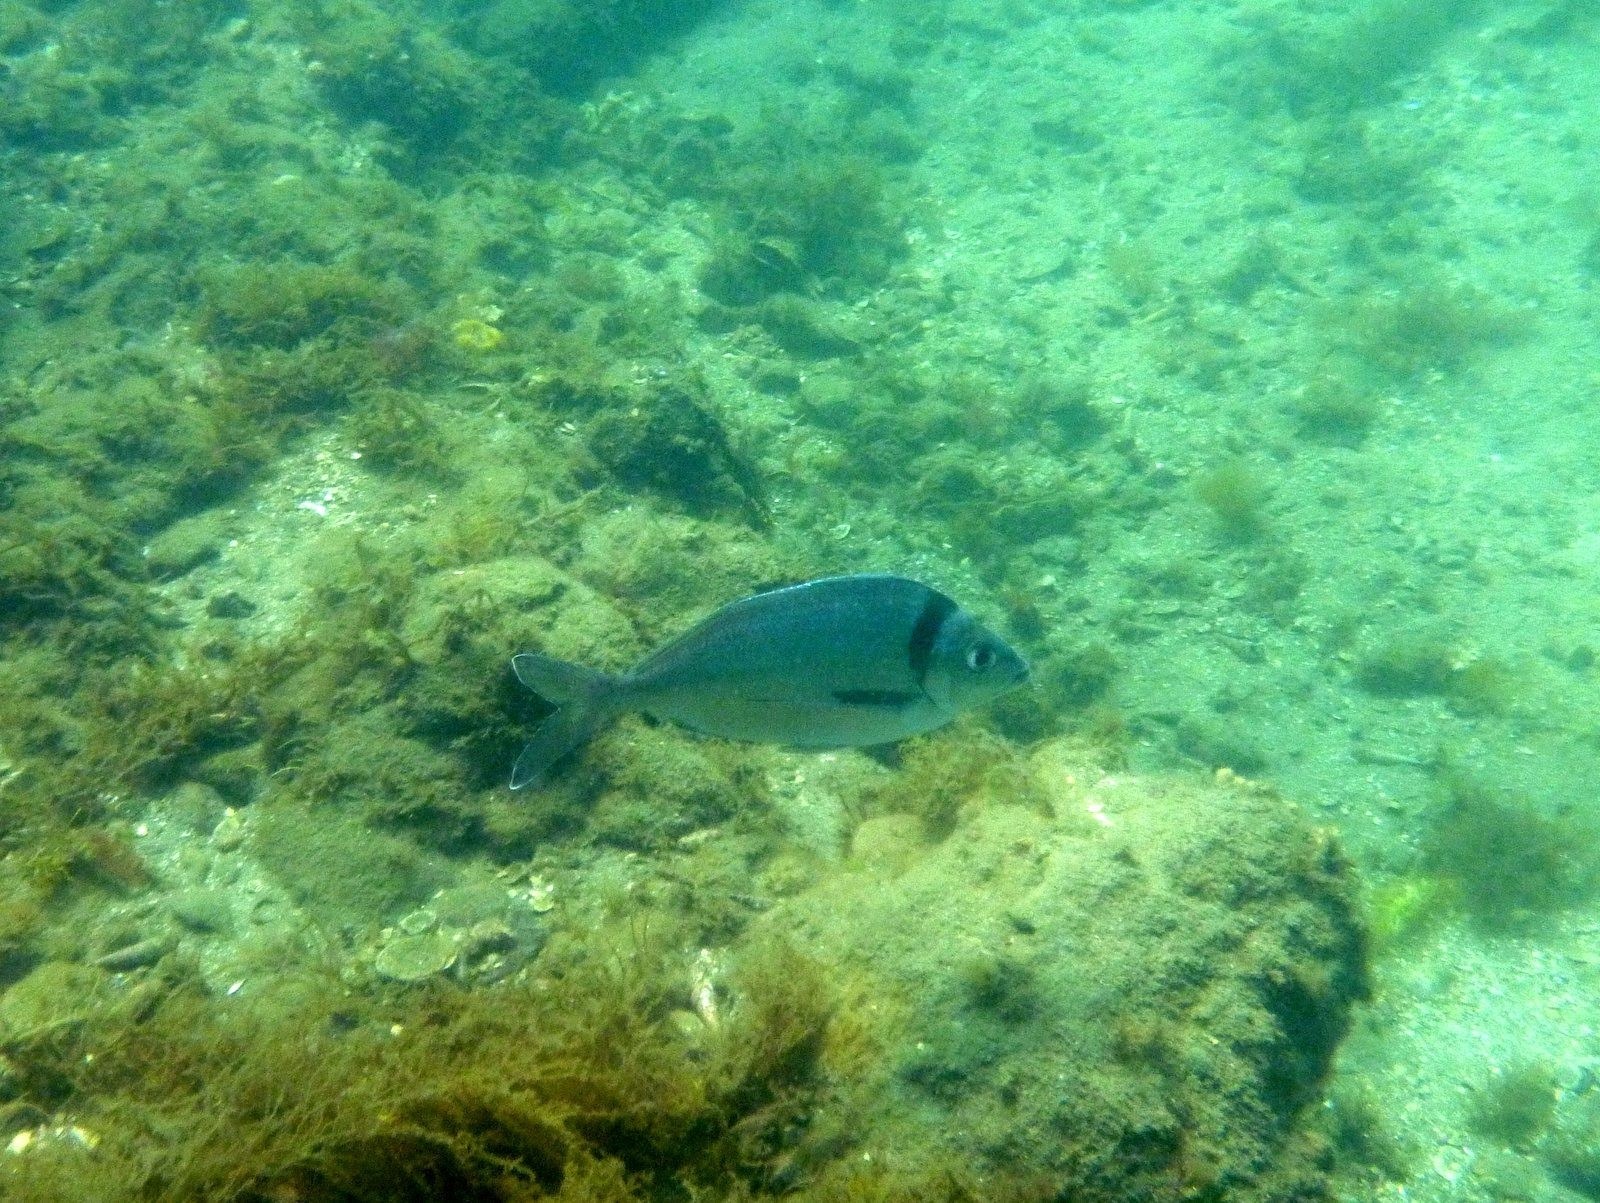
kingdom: Animalia
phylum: Chordata
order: Perciformes
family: Cheilodactylidae
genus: Nemadactylus
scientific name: Nemadactylus macropterus
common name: Tarakihi
